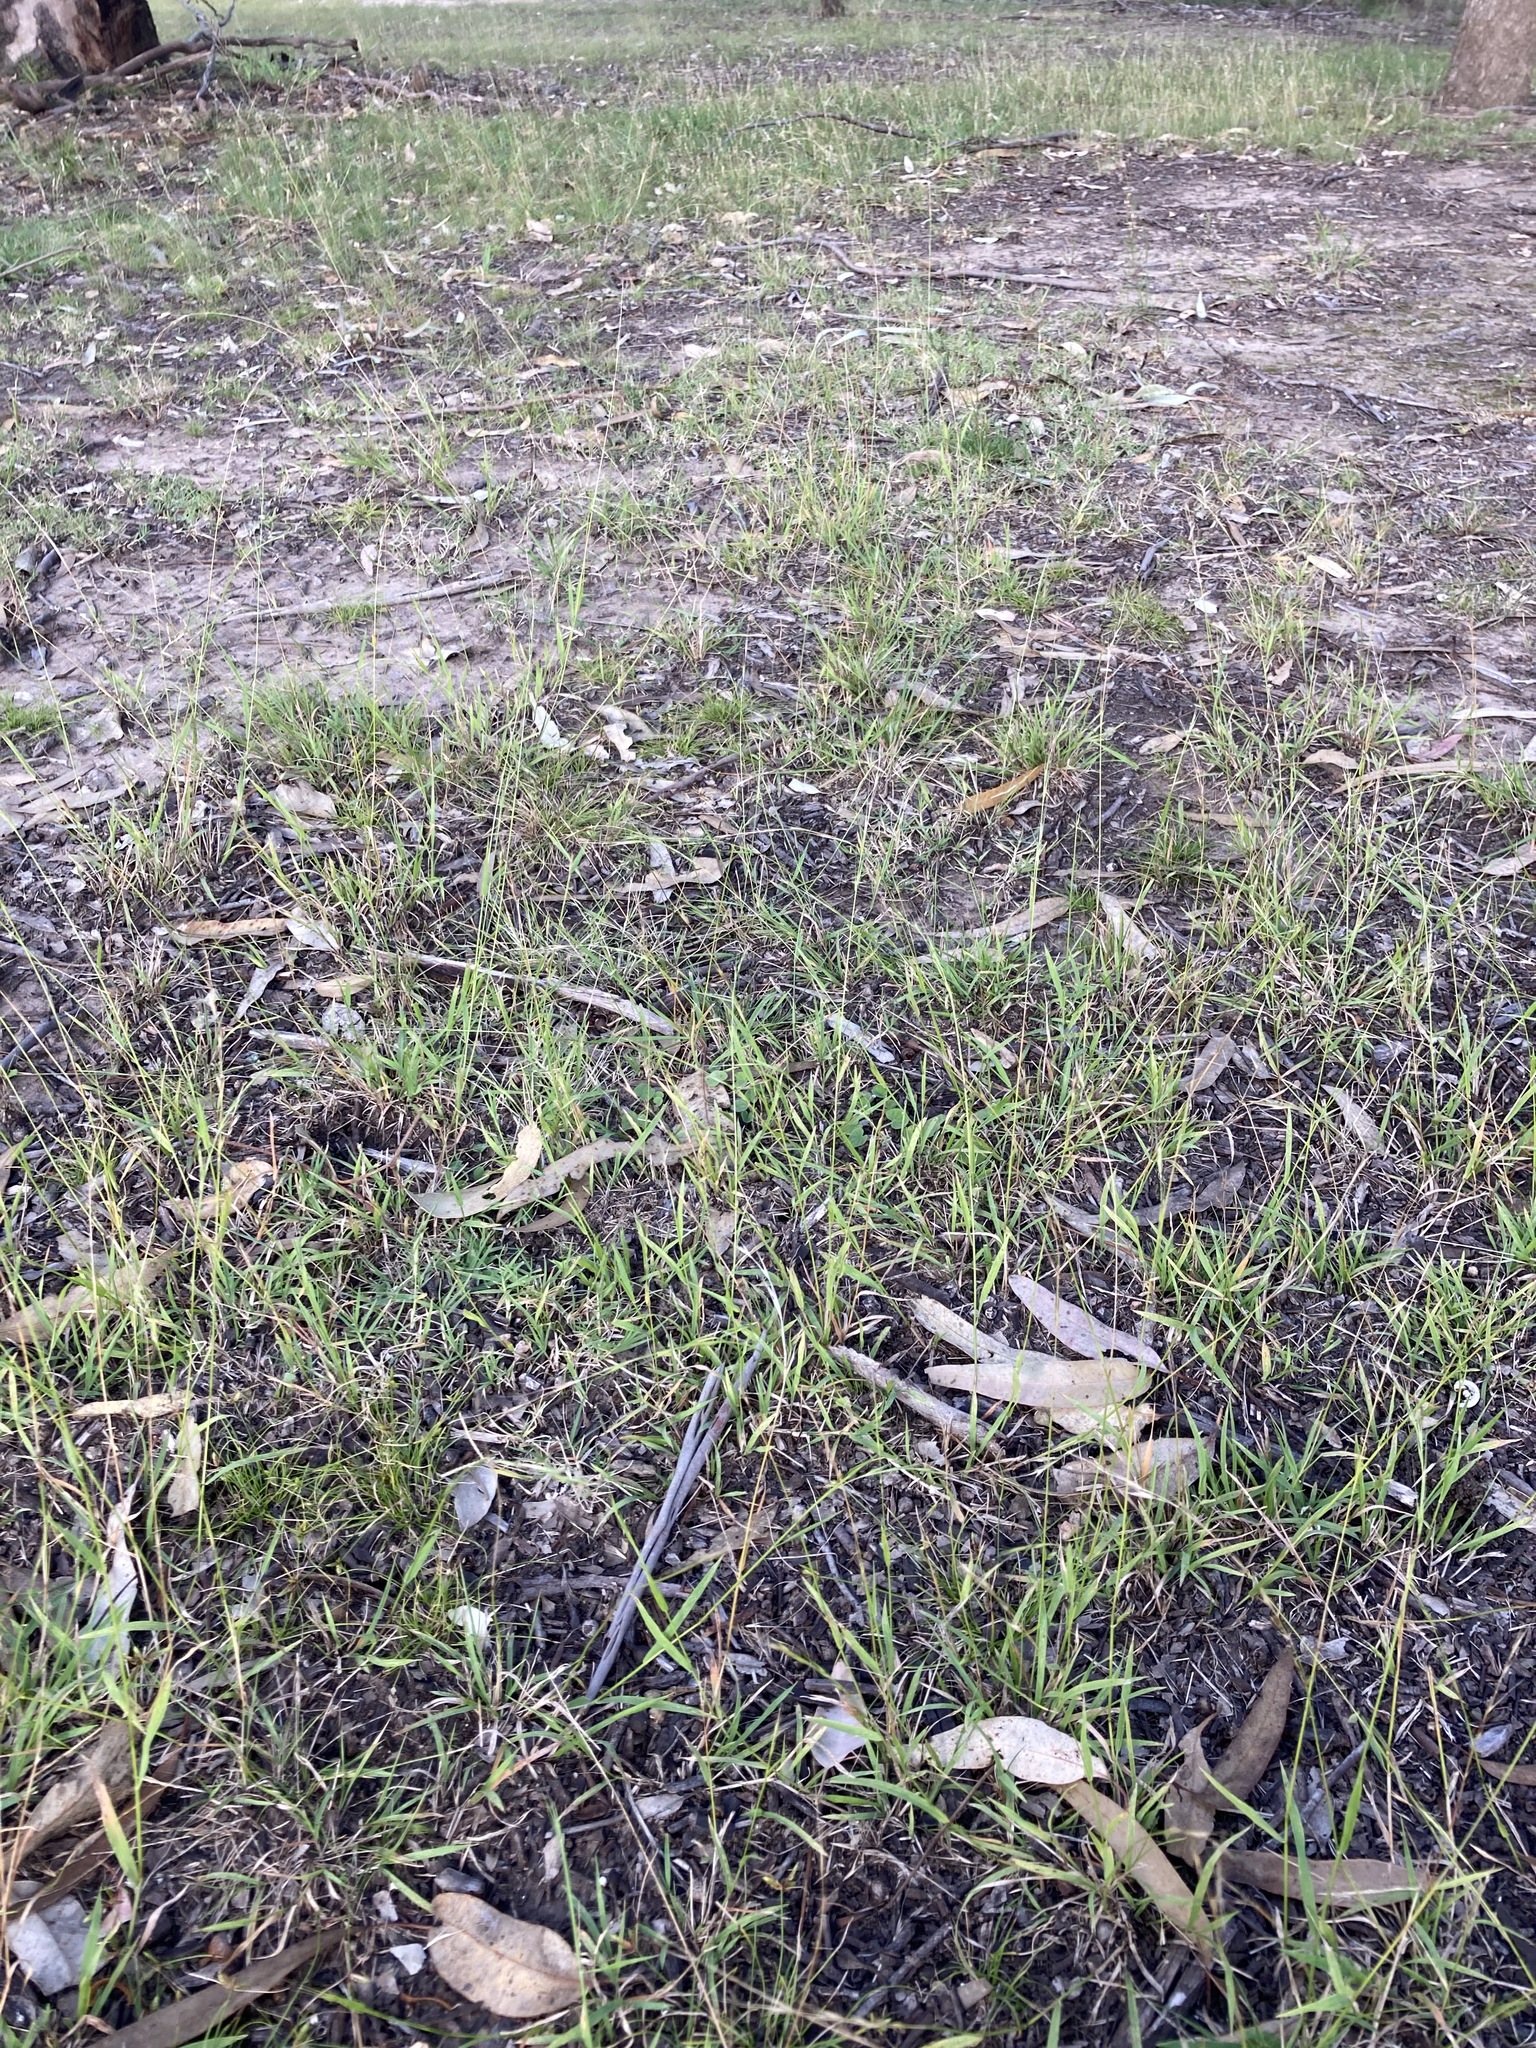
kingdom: Plantae
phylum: Tracheophyta
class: Liliopsida
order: Poales
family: Poaceae
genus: Microlaena
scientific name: Microlaena stipoides
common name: Meadow ricegrass
